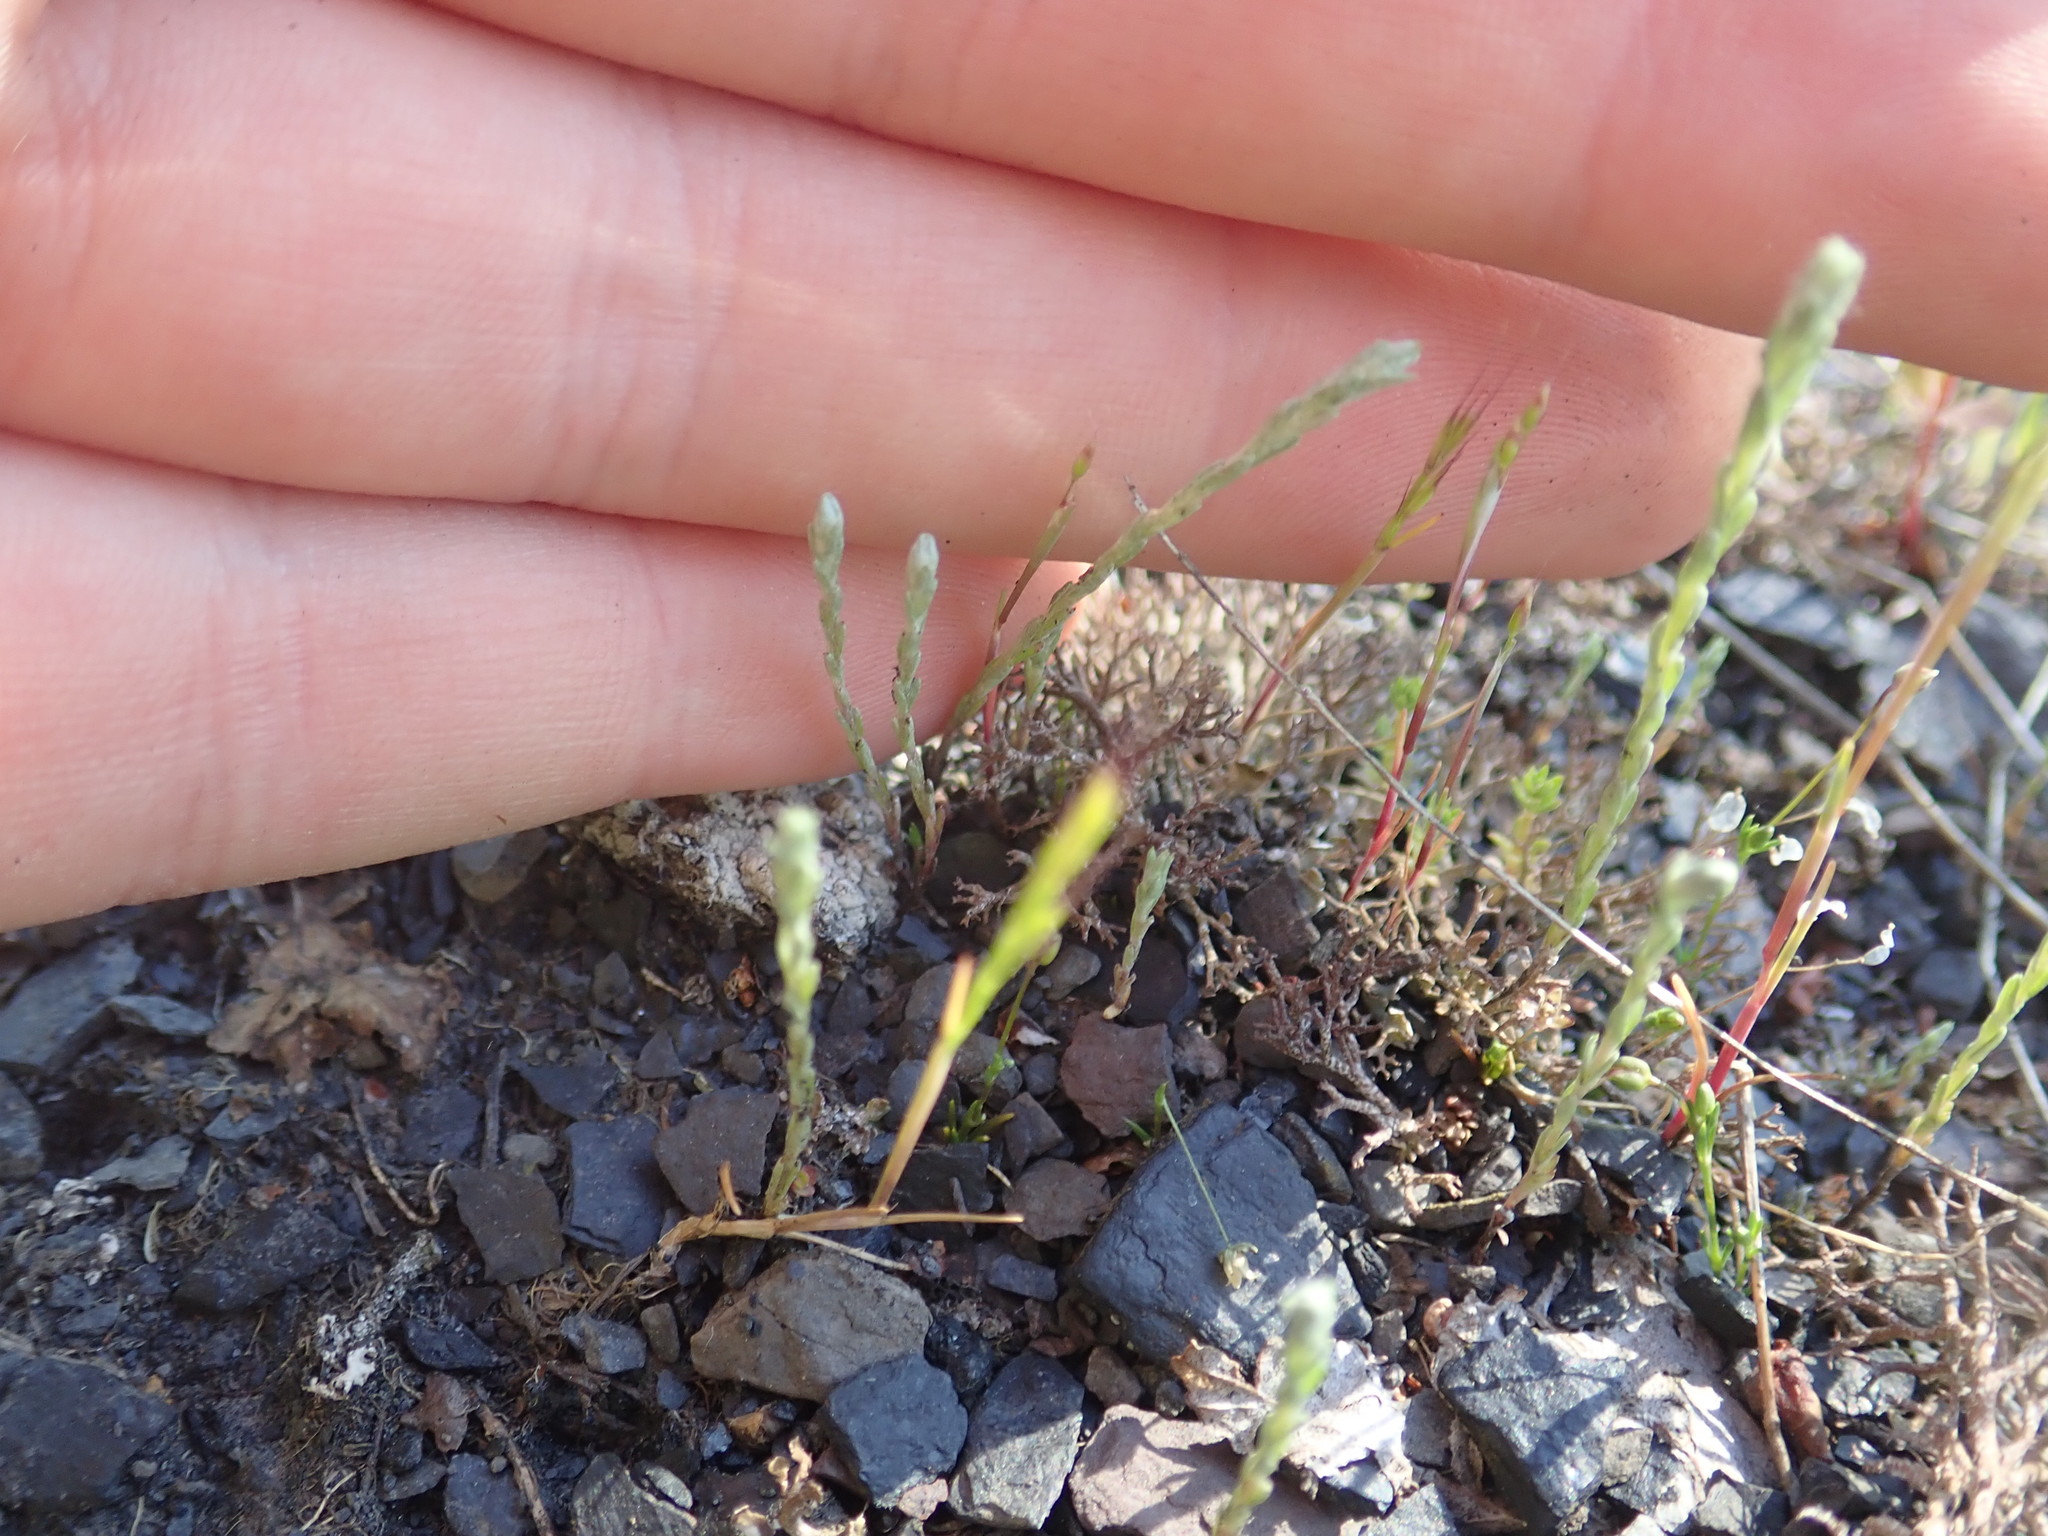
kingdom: Plantae
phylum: Tracheophyta
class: Magnoliopsida
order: Asterales
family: Asteraceae
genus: Logfia
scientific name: Logfia minima
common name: Little cottonrose
